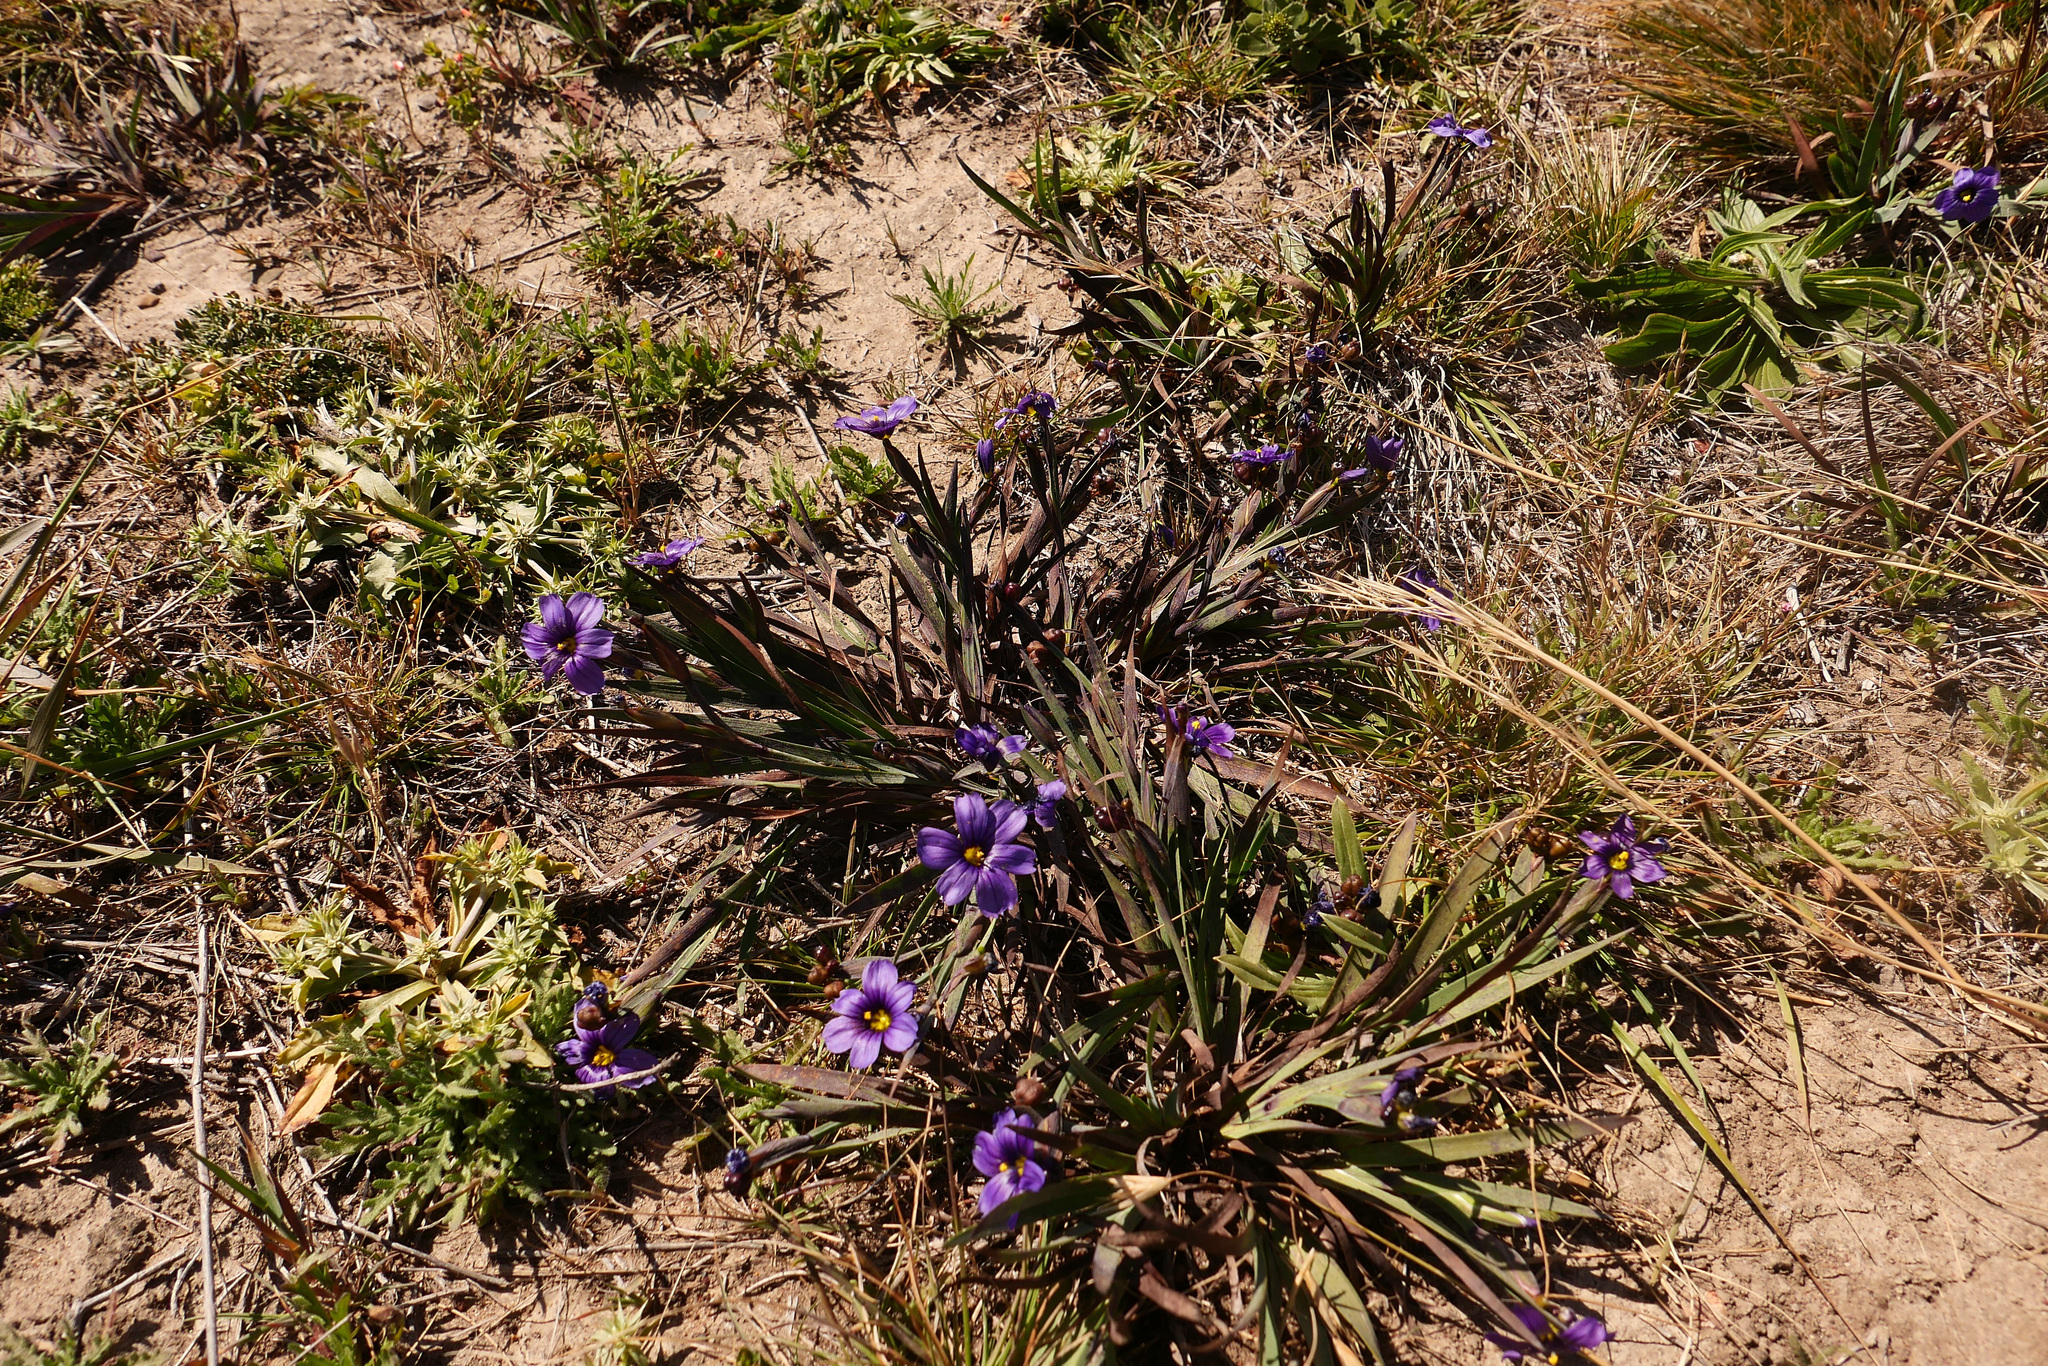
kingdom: Plantae
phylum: Tracheophyta
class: Liliopsida
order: Asparagales
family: Iridaceae
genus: Sisyrinchium
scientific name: Sisyrinchium bellum
